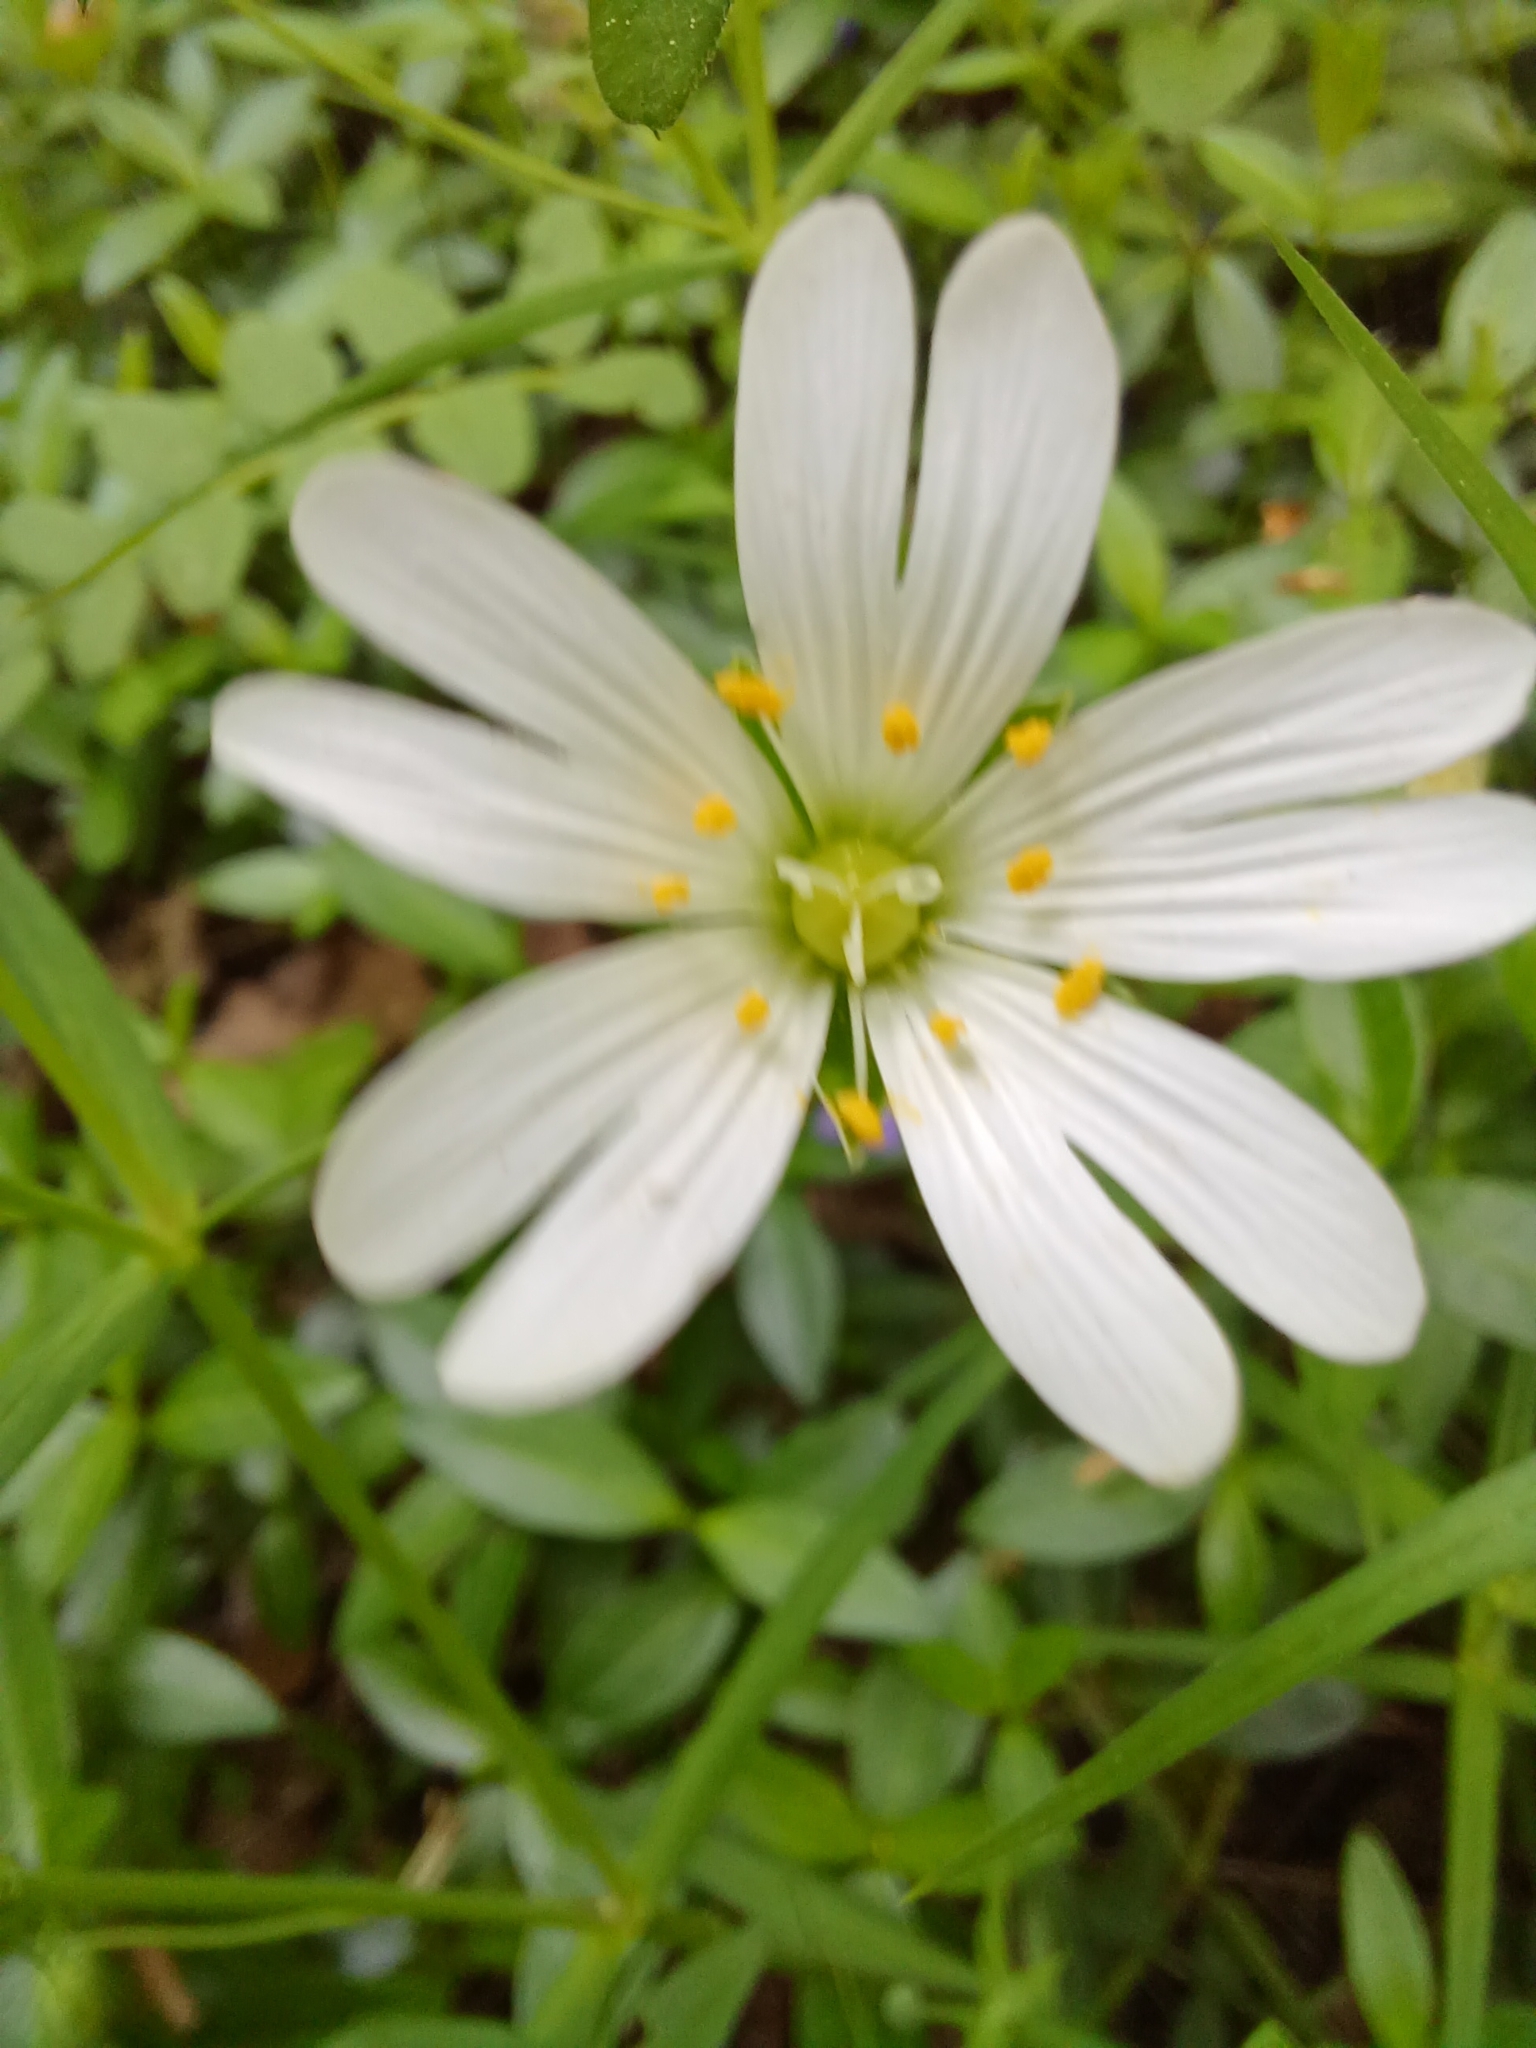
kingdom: Plantae
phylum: Tracheophyta
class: Magnoliopsida
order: Caryophyllales
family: Caryophyllaceae
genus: Rabelera
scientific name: Rabelera holostea
